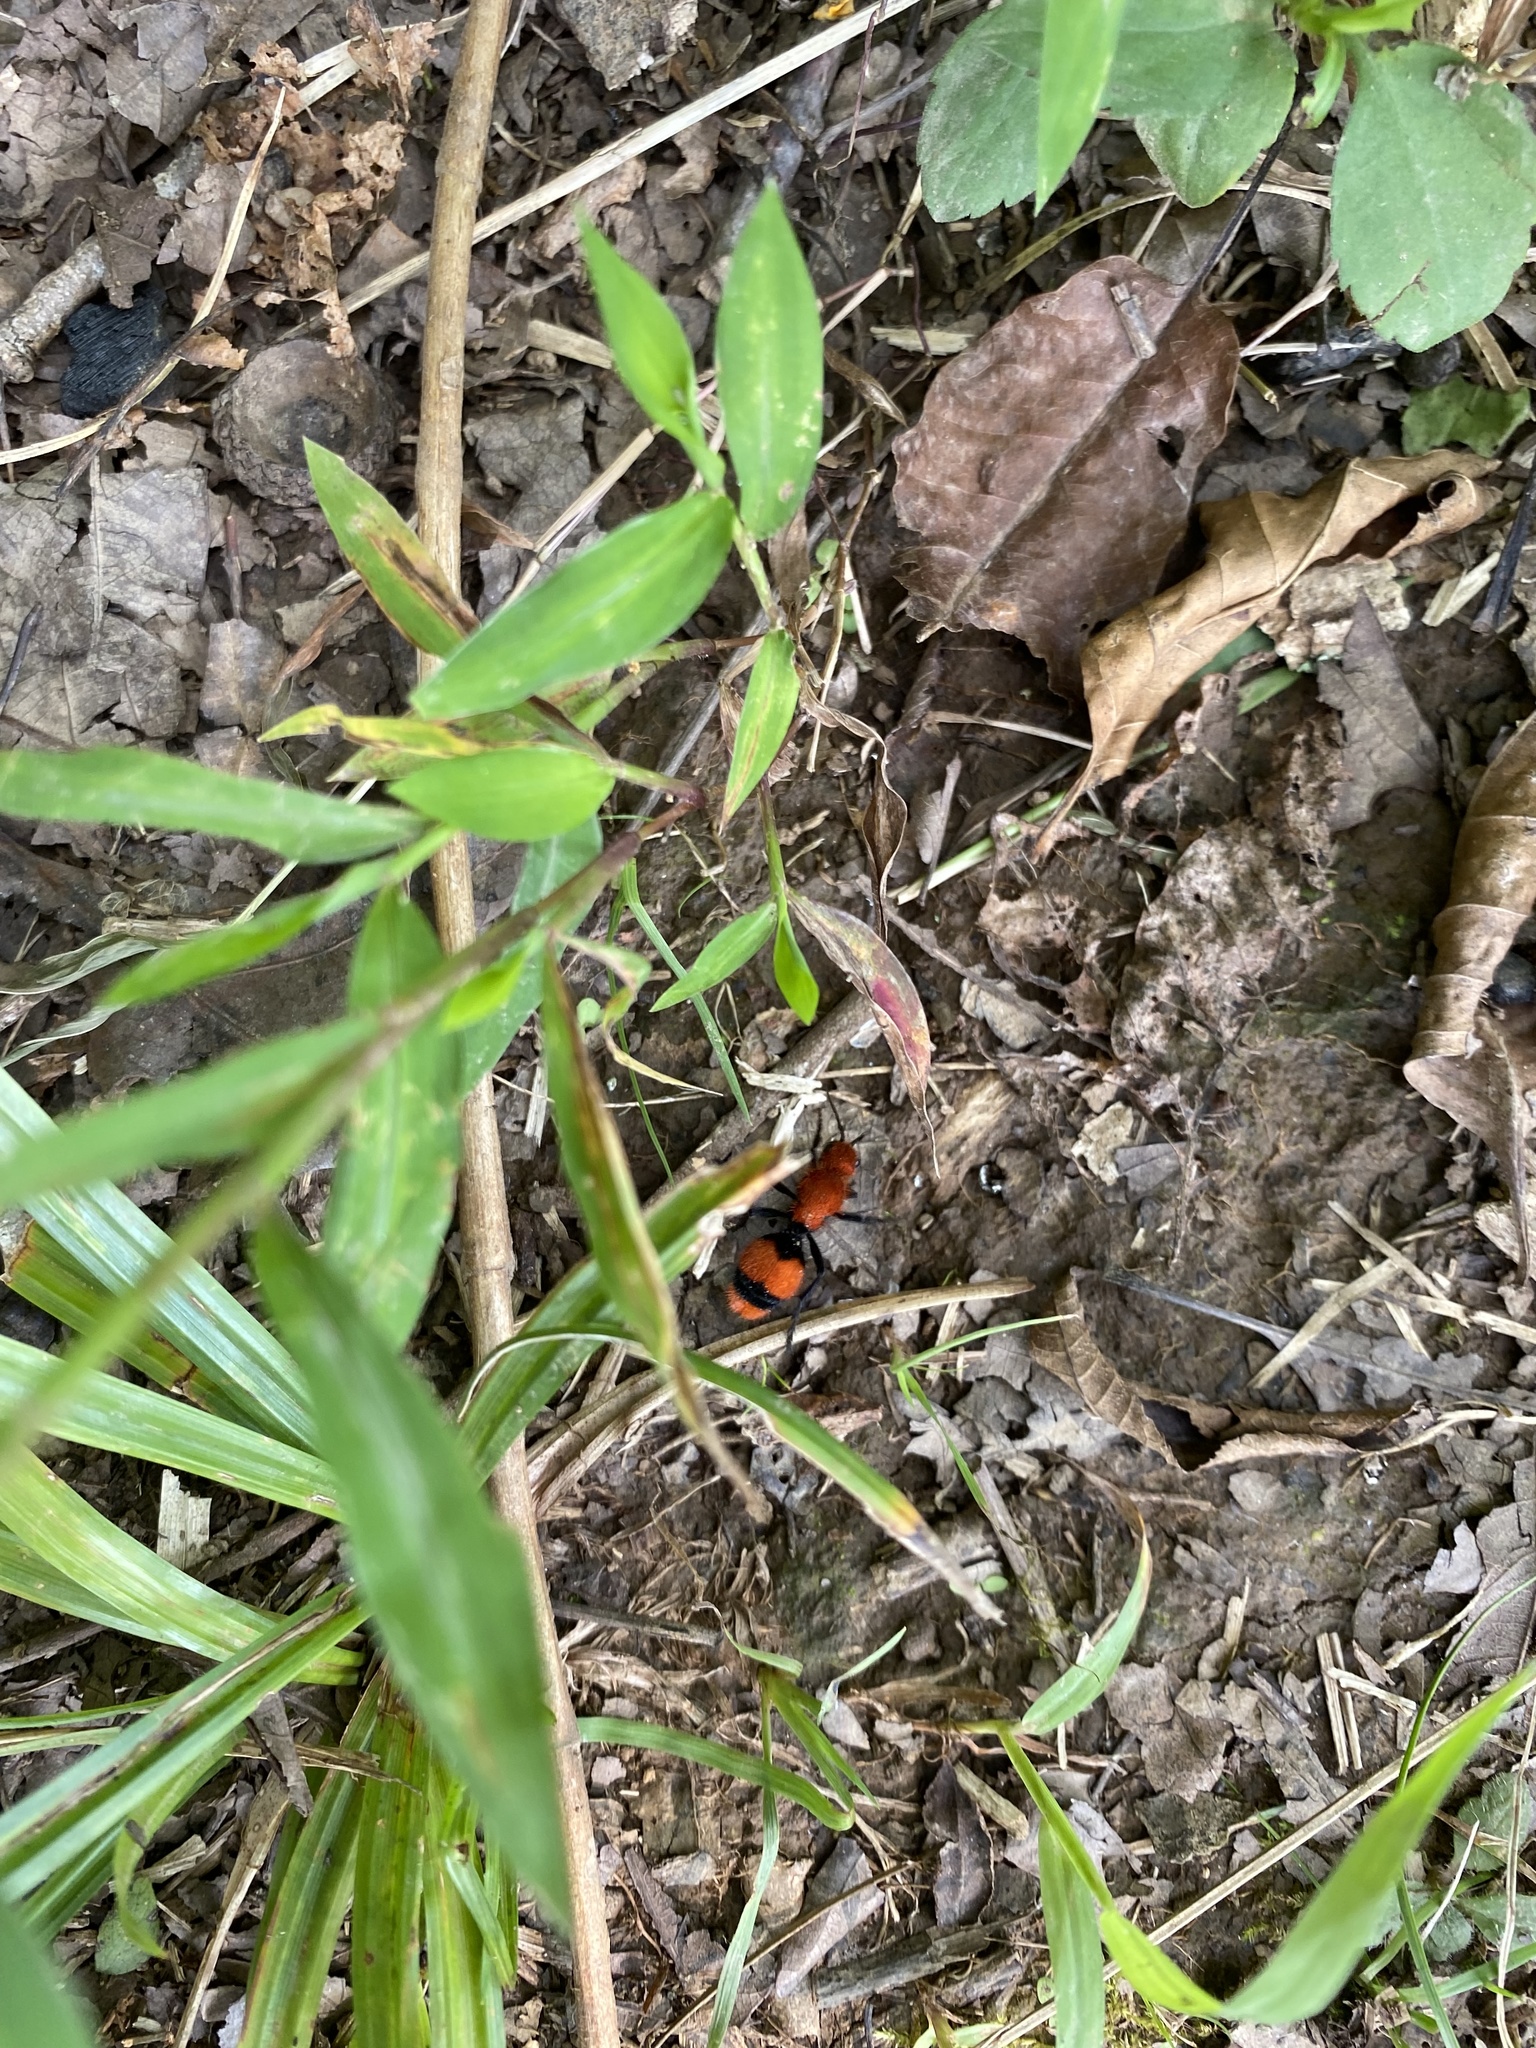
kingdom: Animalia
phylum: Arthropoda
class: Insecta
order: Hymenoptera
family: Mutillidae
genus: Dasymutilla
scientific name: Dasymutilla occidentalis
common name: Common eastern velvet ant
